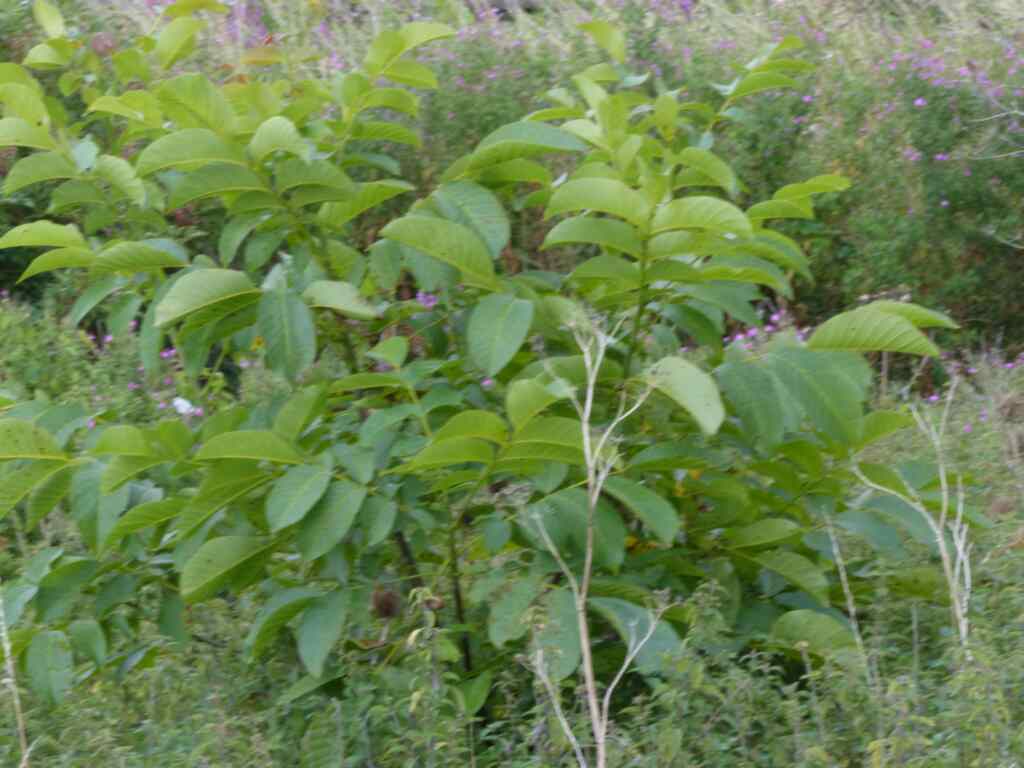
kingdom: Plantae
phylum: Tracheophyta
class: Magnoliopsida
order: Fagales
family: Juglandaceae
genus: Juglans
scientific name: Juglans regia
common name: Walnut
